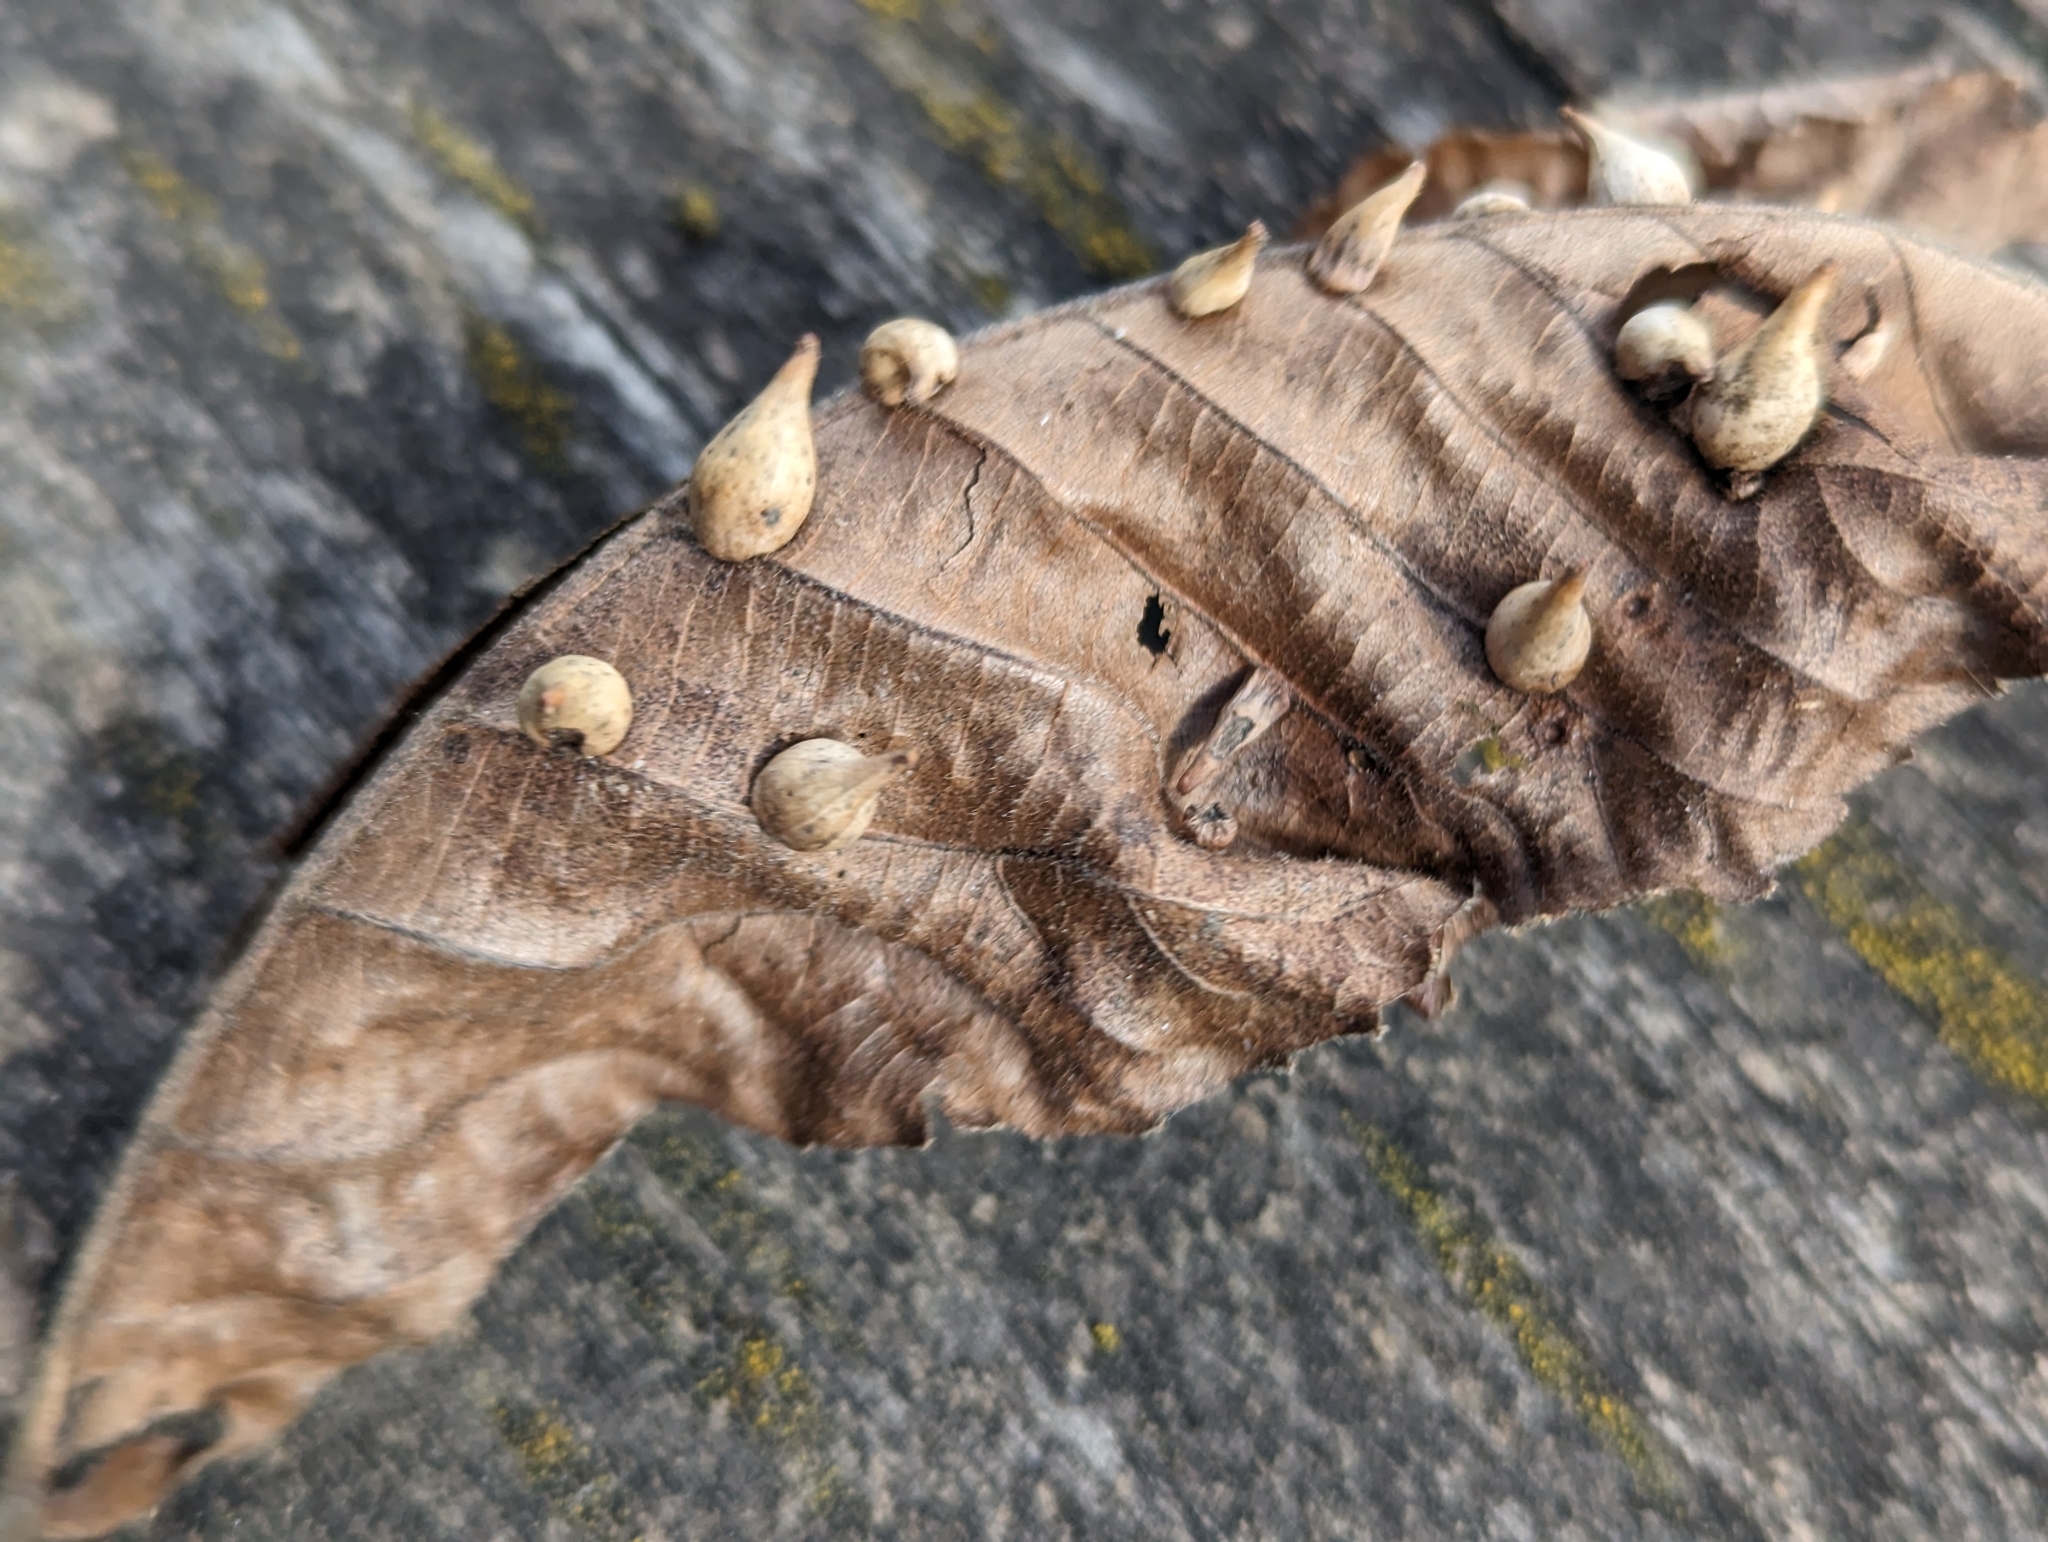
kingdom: Animalia
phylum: Arthropoda
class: Insecta
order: Diptera
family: Cecidomyiidae
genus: Caryomyia
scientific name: Caryomyia caryaecola
